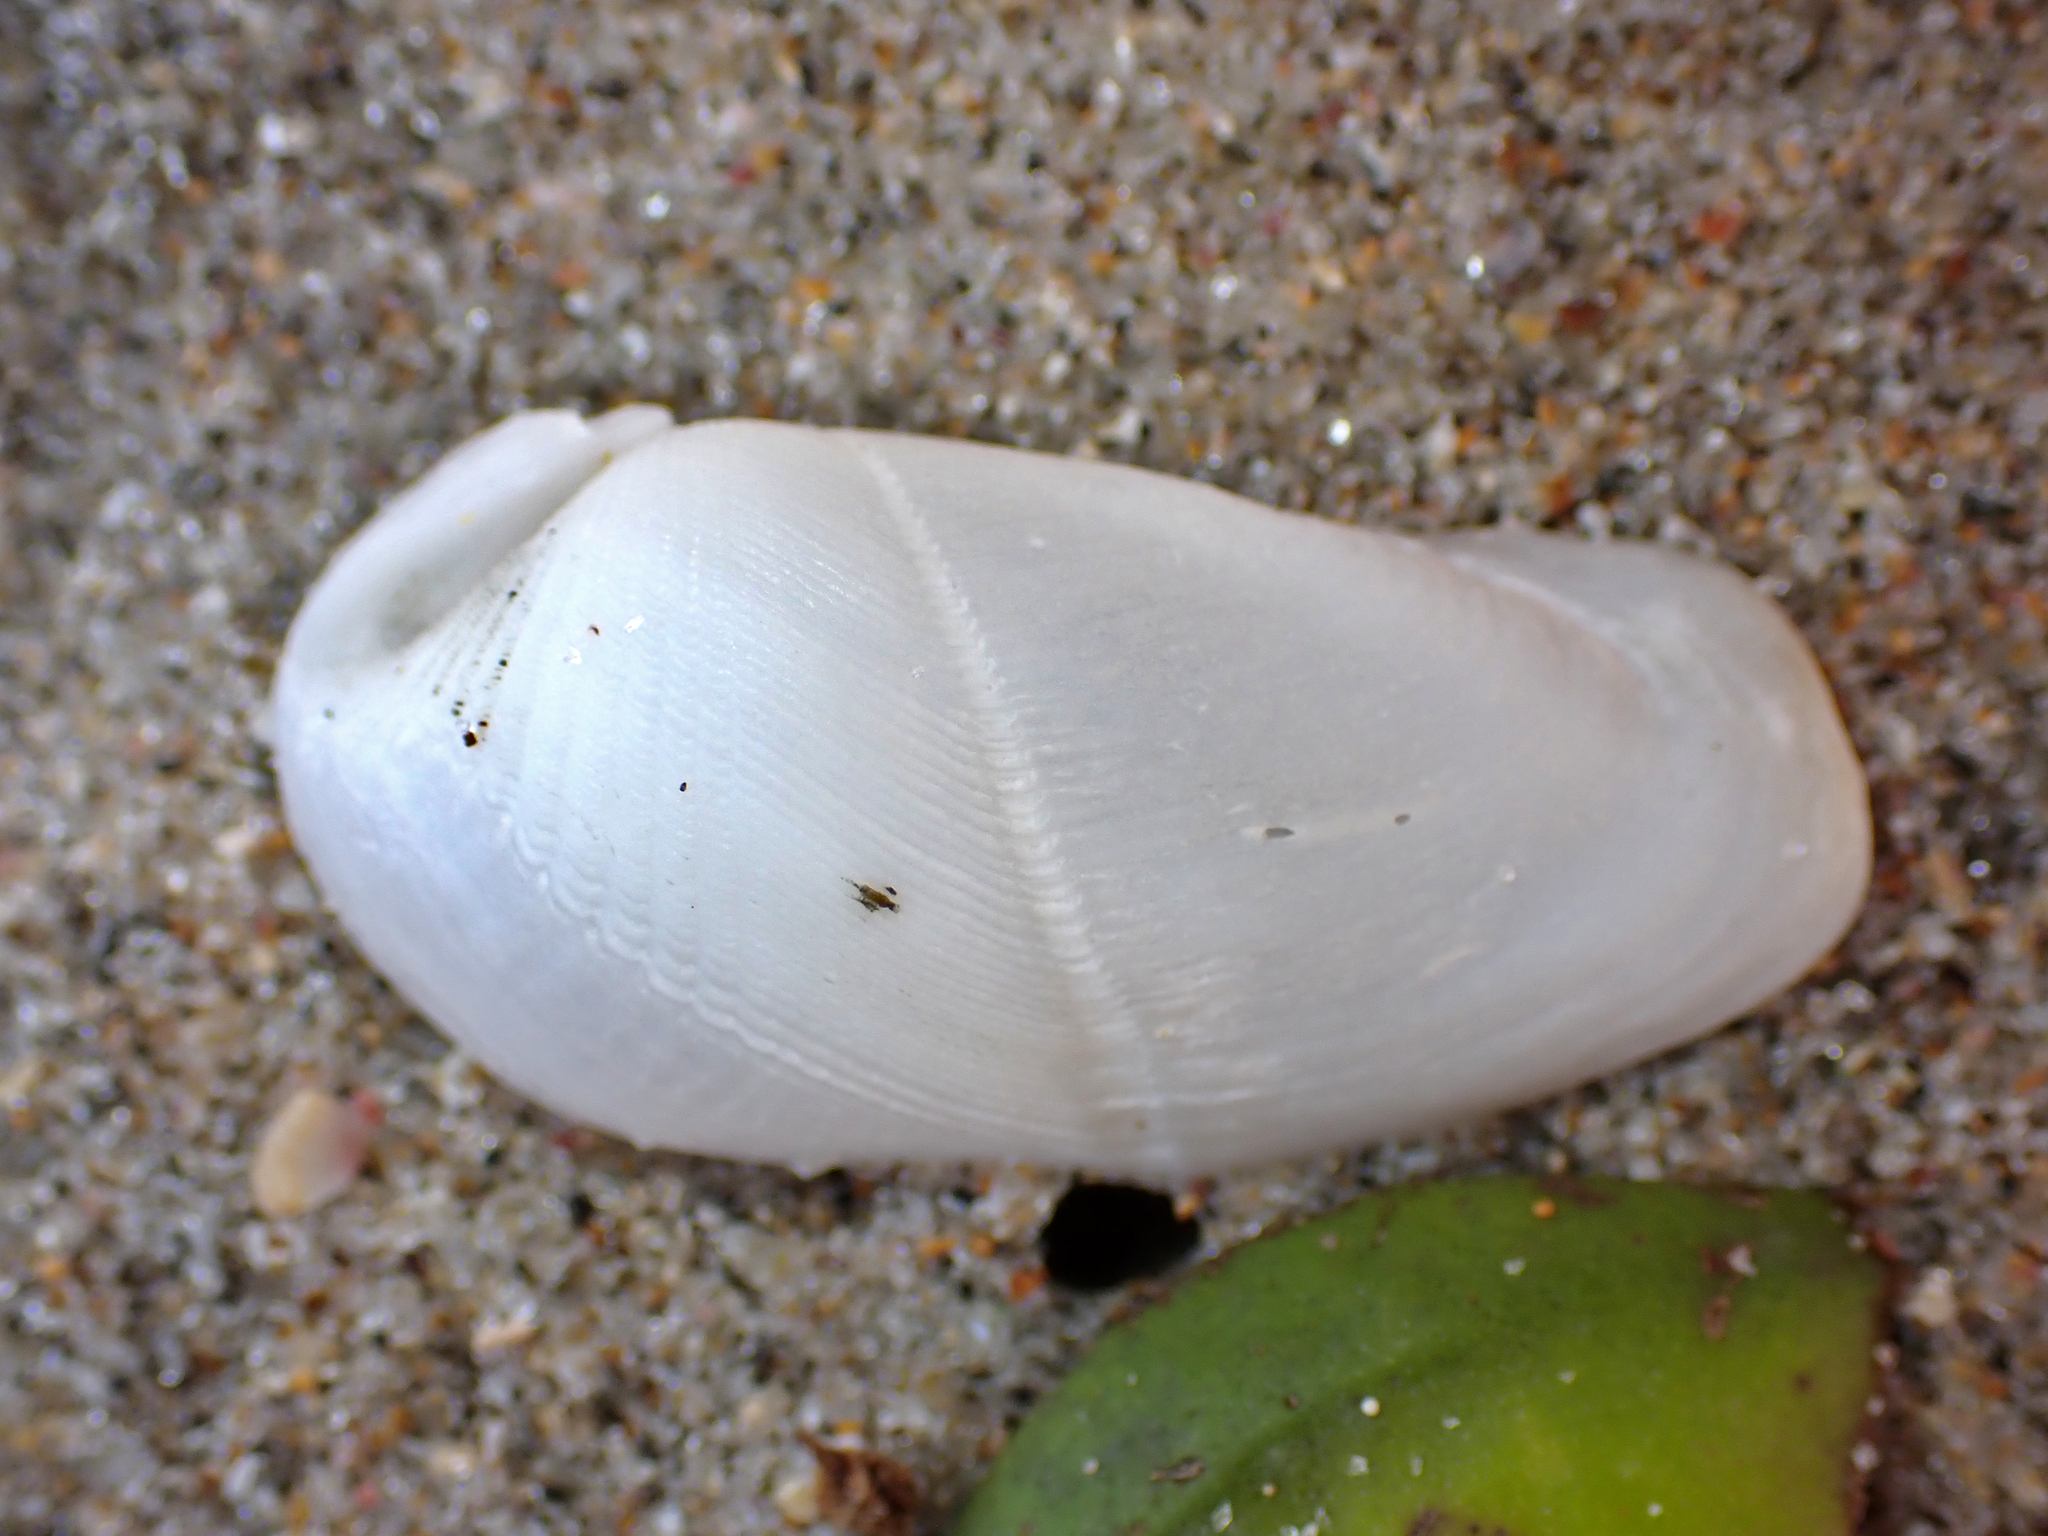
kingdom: Animalia
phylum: Mollusca
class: Bivalvia
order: Myida
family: Pholadidae
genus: Pholadidea
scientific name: Pholadidea suteri
